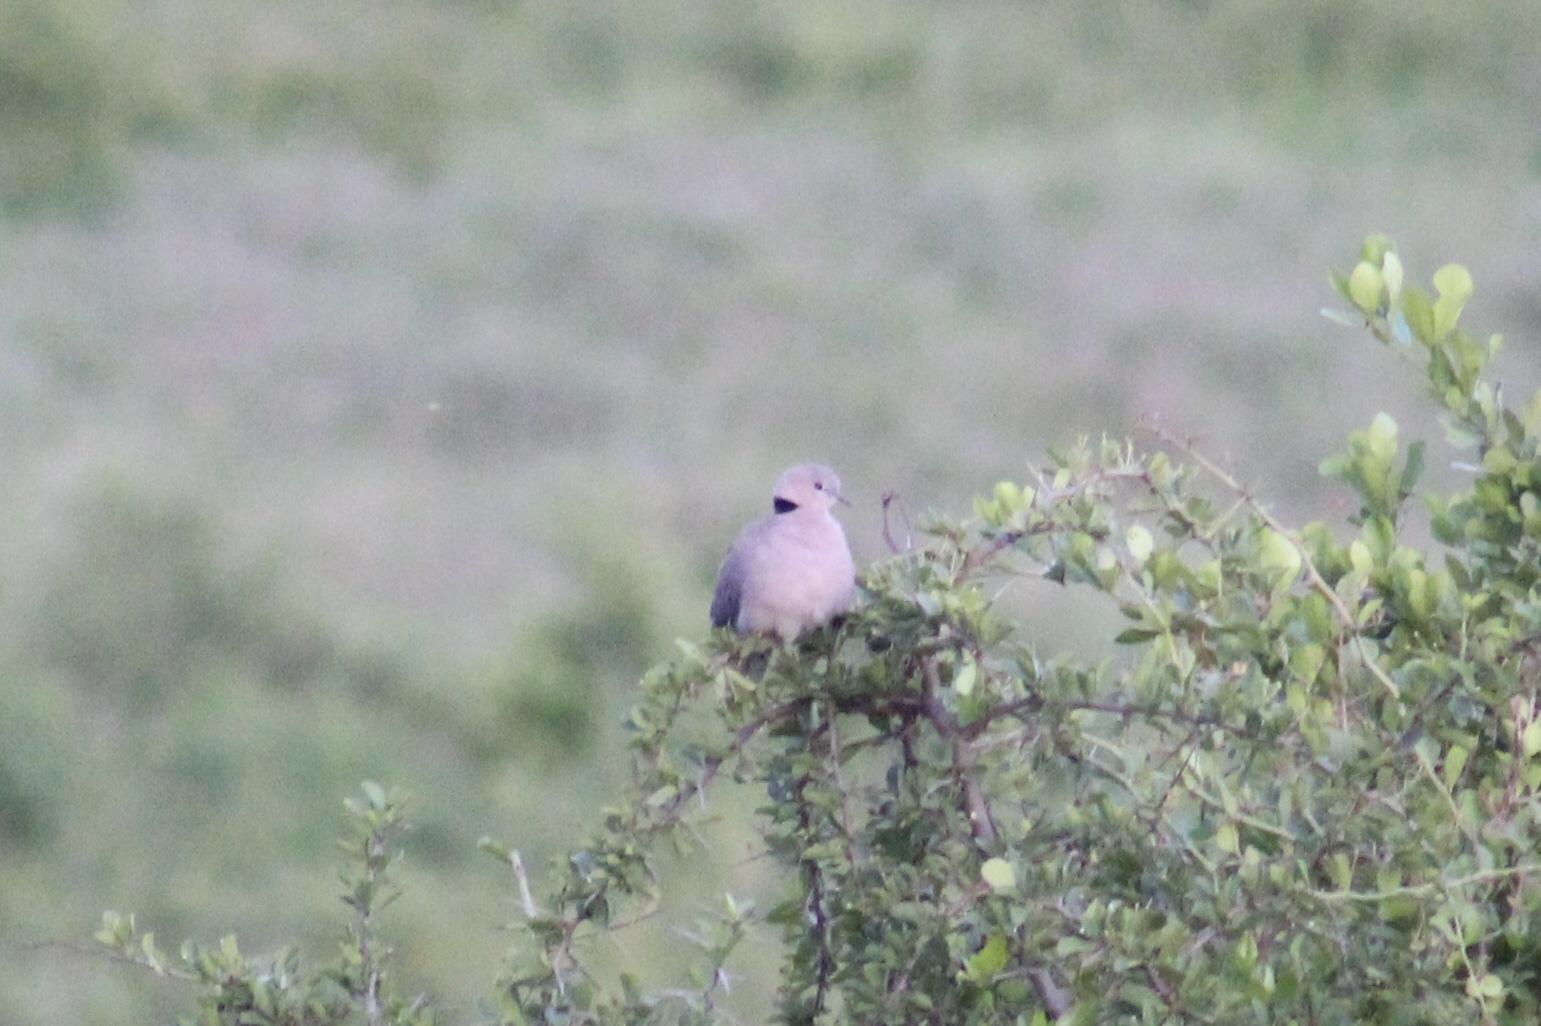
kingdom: Animalia
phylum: Chordata
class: Aves
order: Columbiformes
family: Columbidae
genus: Streptopelia
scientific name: Streptopelia capicola
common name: Ring-necked dove
